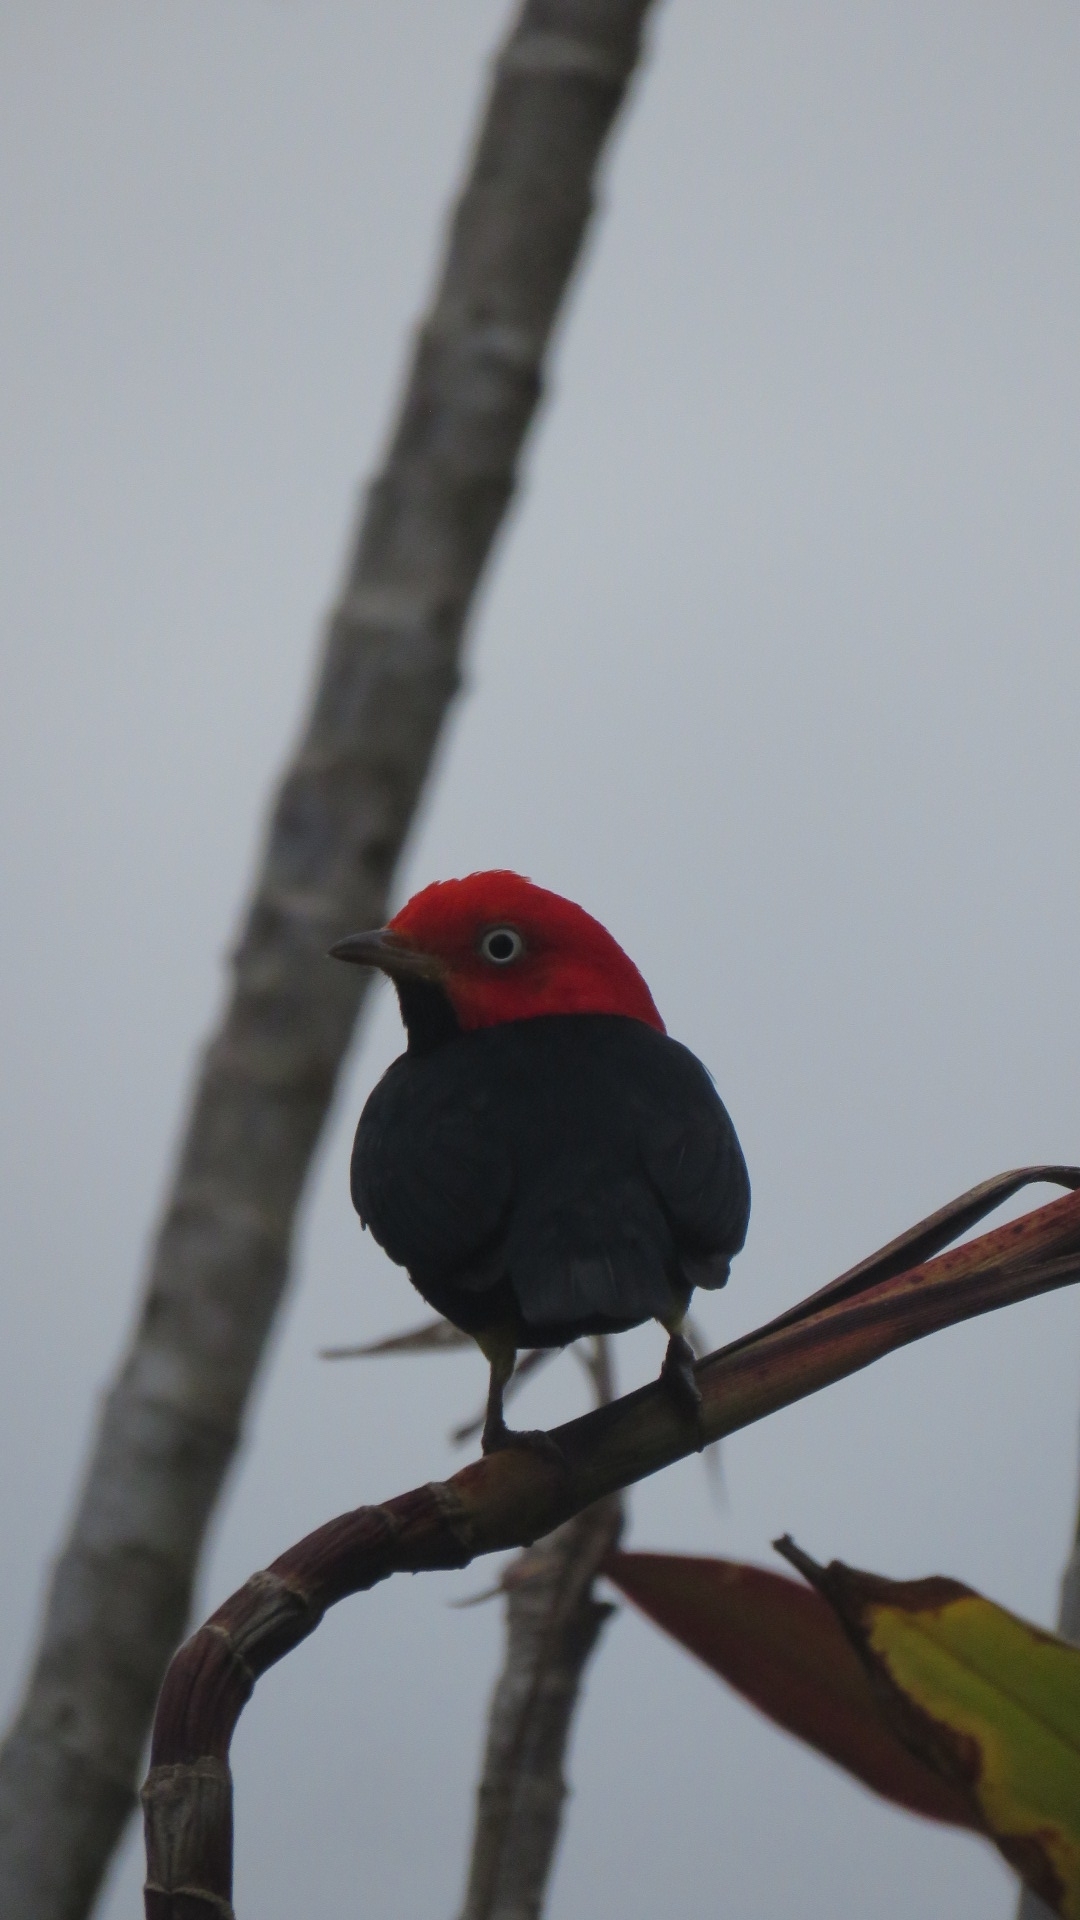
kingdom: Animalia
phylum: Chordata
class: Aves
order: Passeriformes
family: Pipridae
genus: Pipra
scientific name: Pipra mentalis
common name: Red-capped manakin
